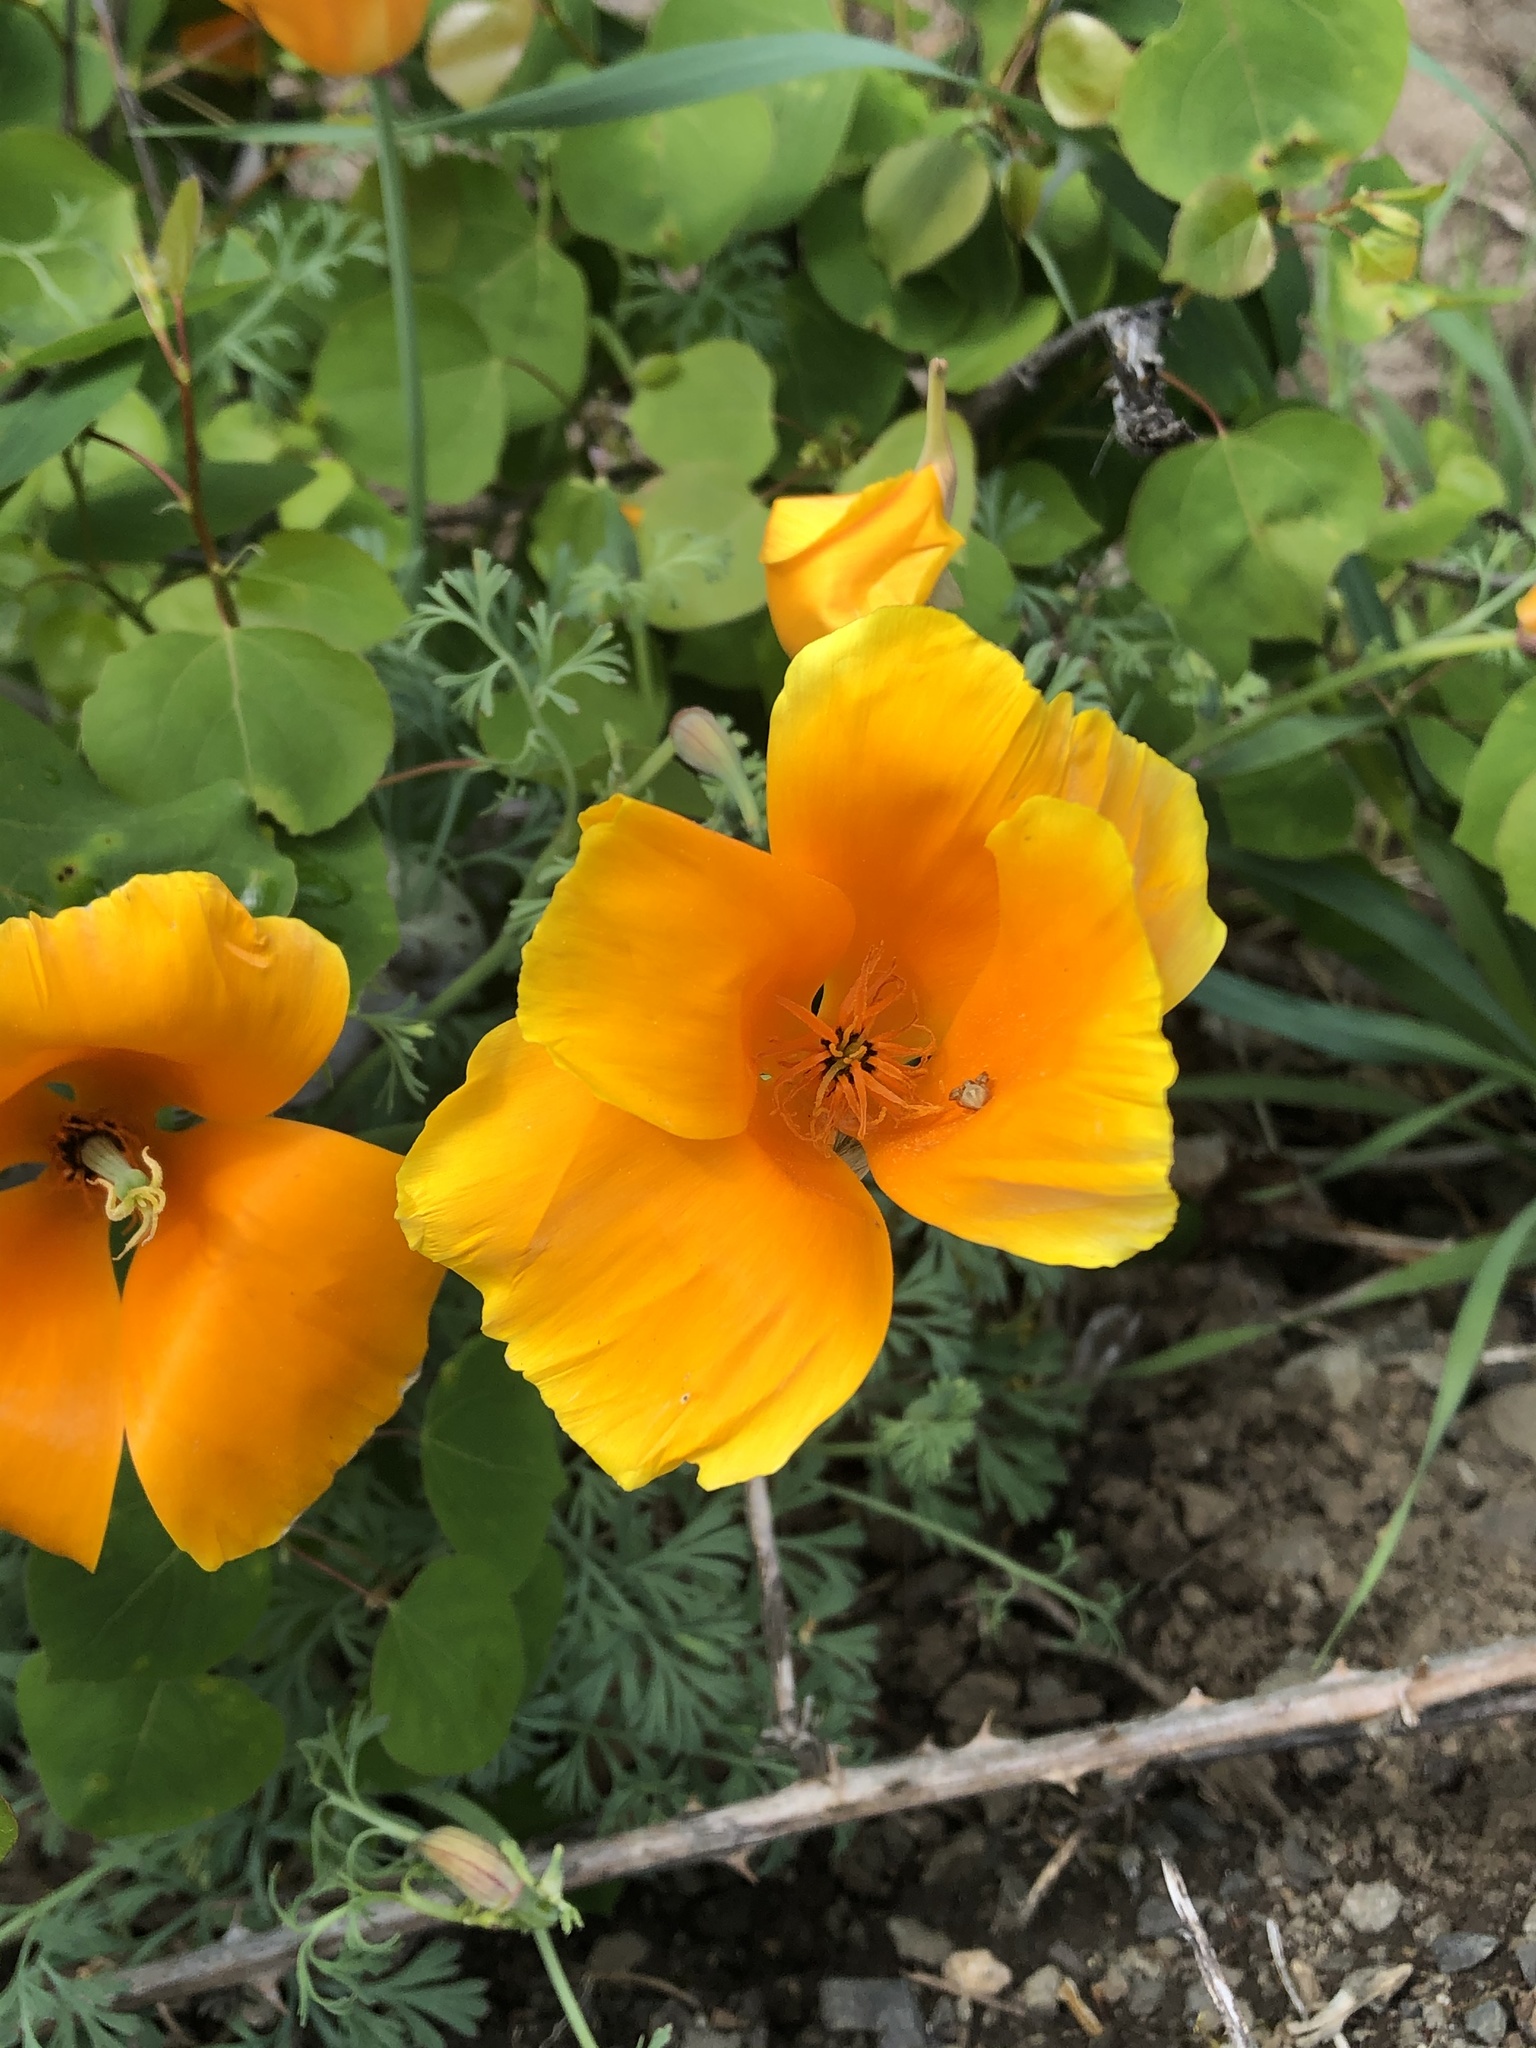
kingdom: Plantae
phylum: Tracheophyta
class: Magnoliopsida
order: Ranunculales
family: Papaveraceae
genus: Eschscholzia
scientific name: Eschscholzia californica
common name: California poppy
